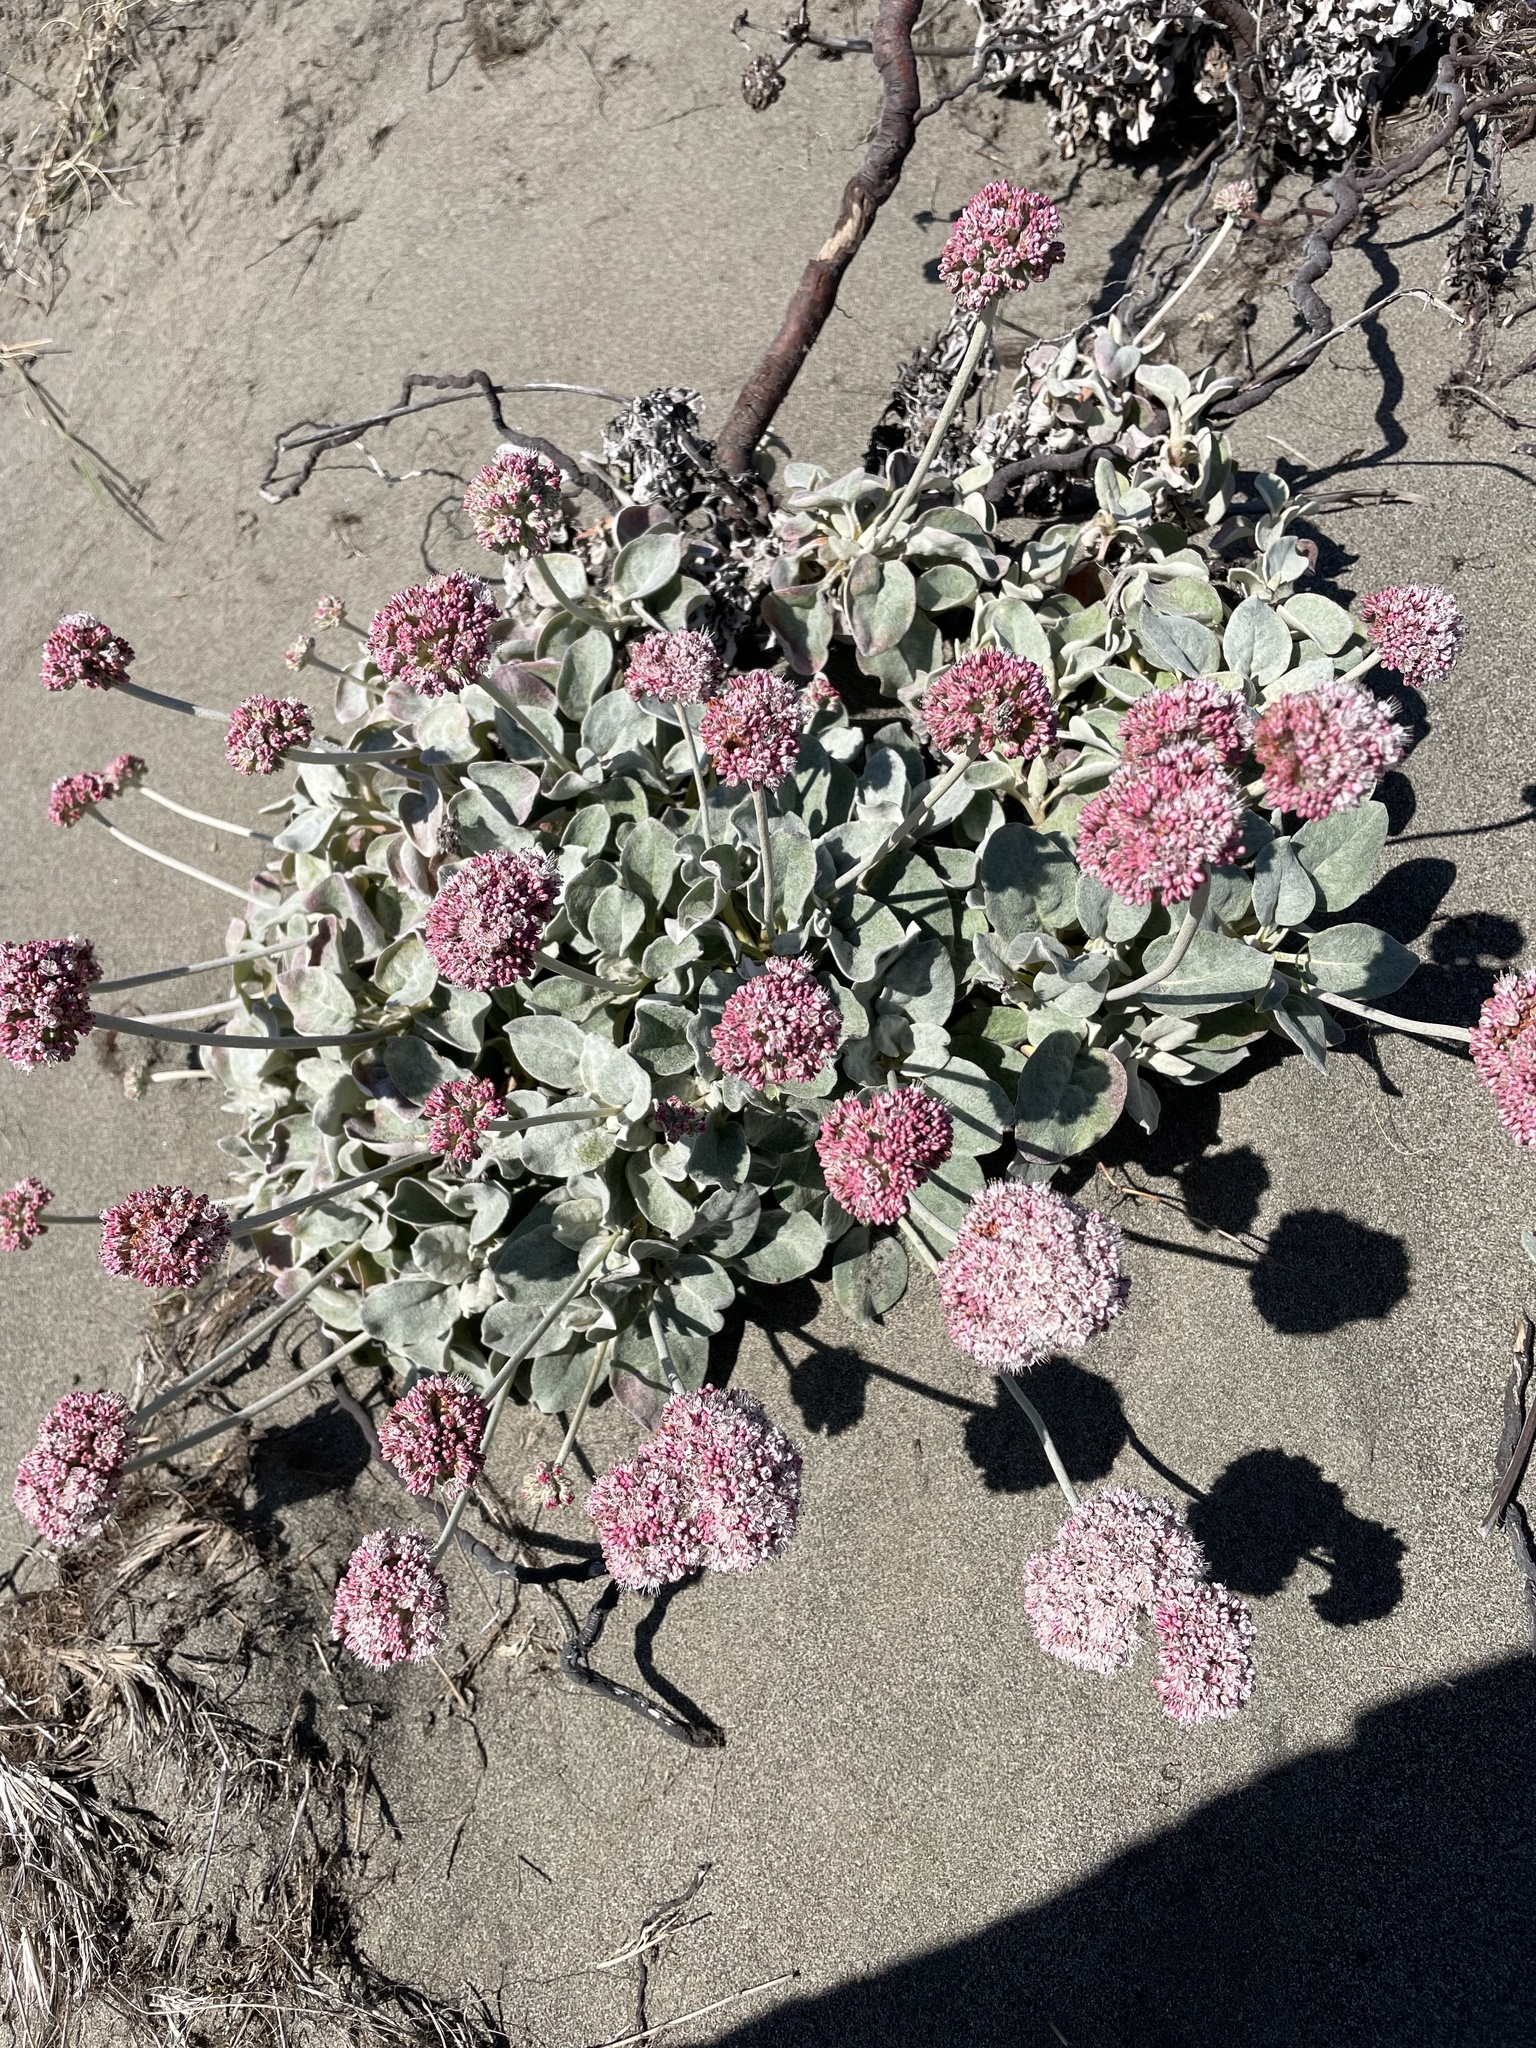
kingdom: Plantae
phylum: Tracheophyta
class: Magnoliopsida
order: Caryophyllales
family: Polygonaceae
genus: Eriogonum
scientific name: Eriogonum latifolium
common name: Seaside wild buckwheat
